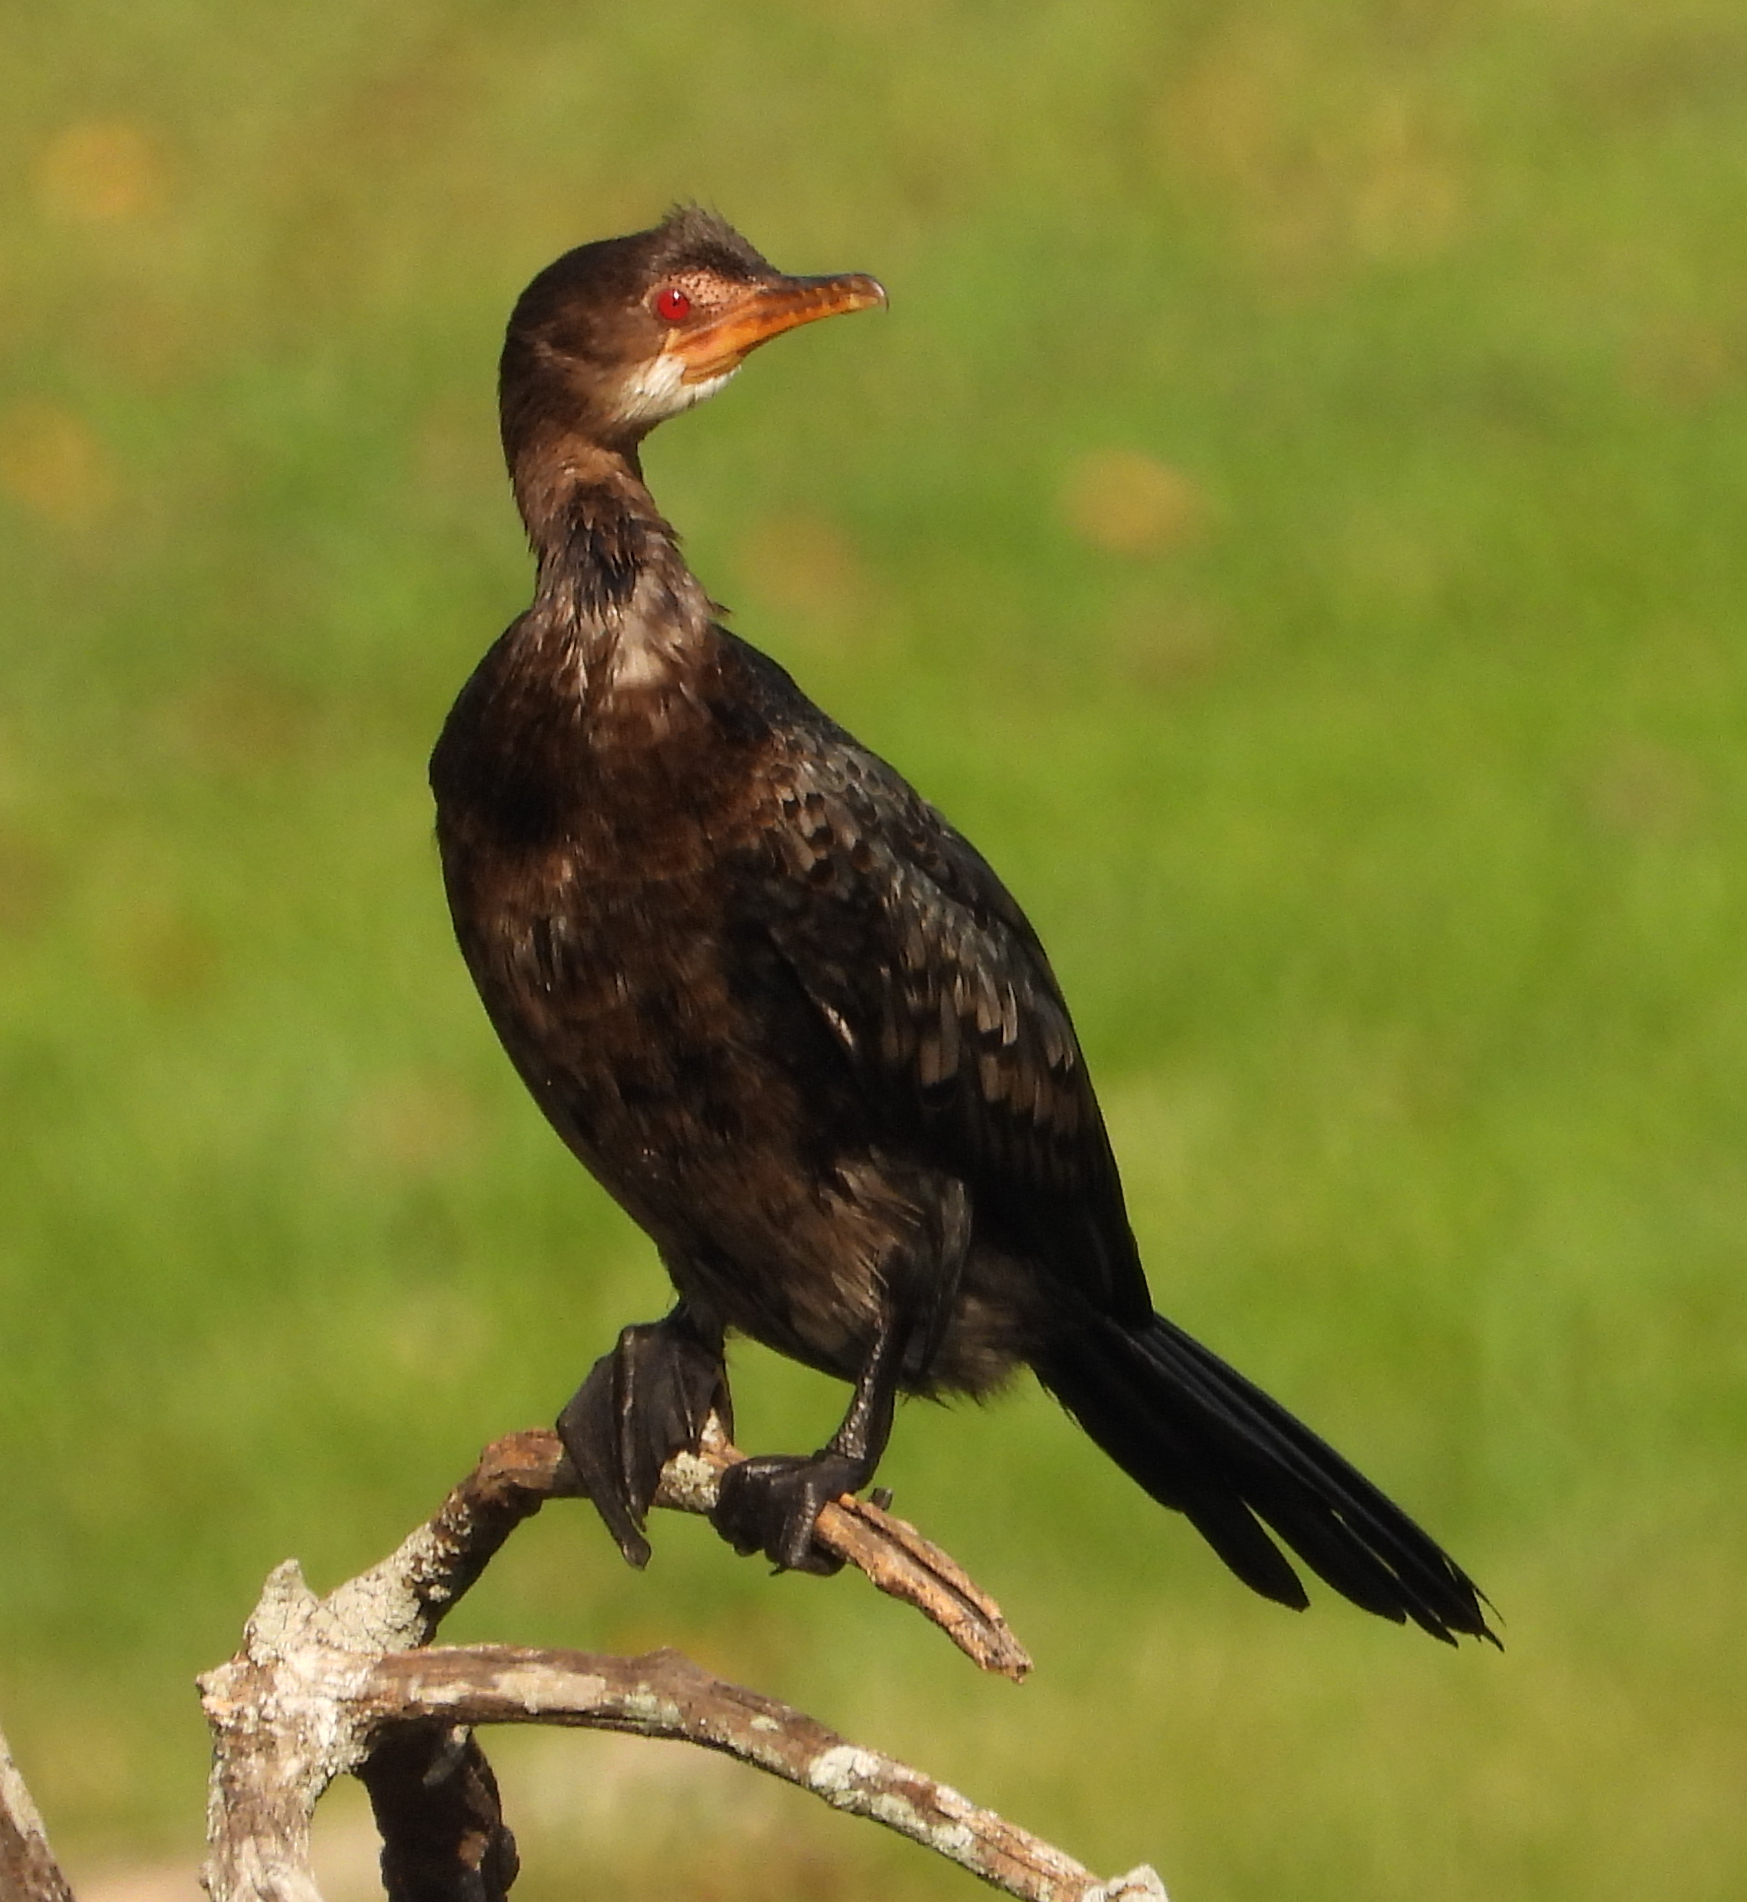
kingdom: Animalia
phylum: Chordata
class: Aves
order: Suliformes
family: Phalacrocoracidae
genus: Microcarbo
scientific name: Microcarbo africanus
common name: Long-tailed cormorant
